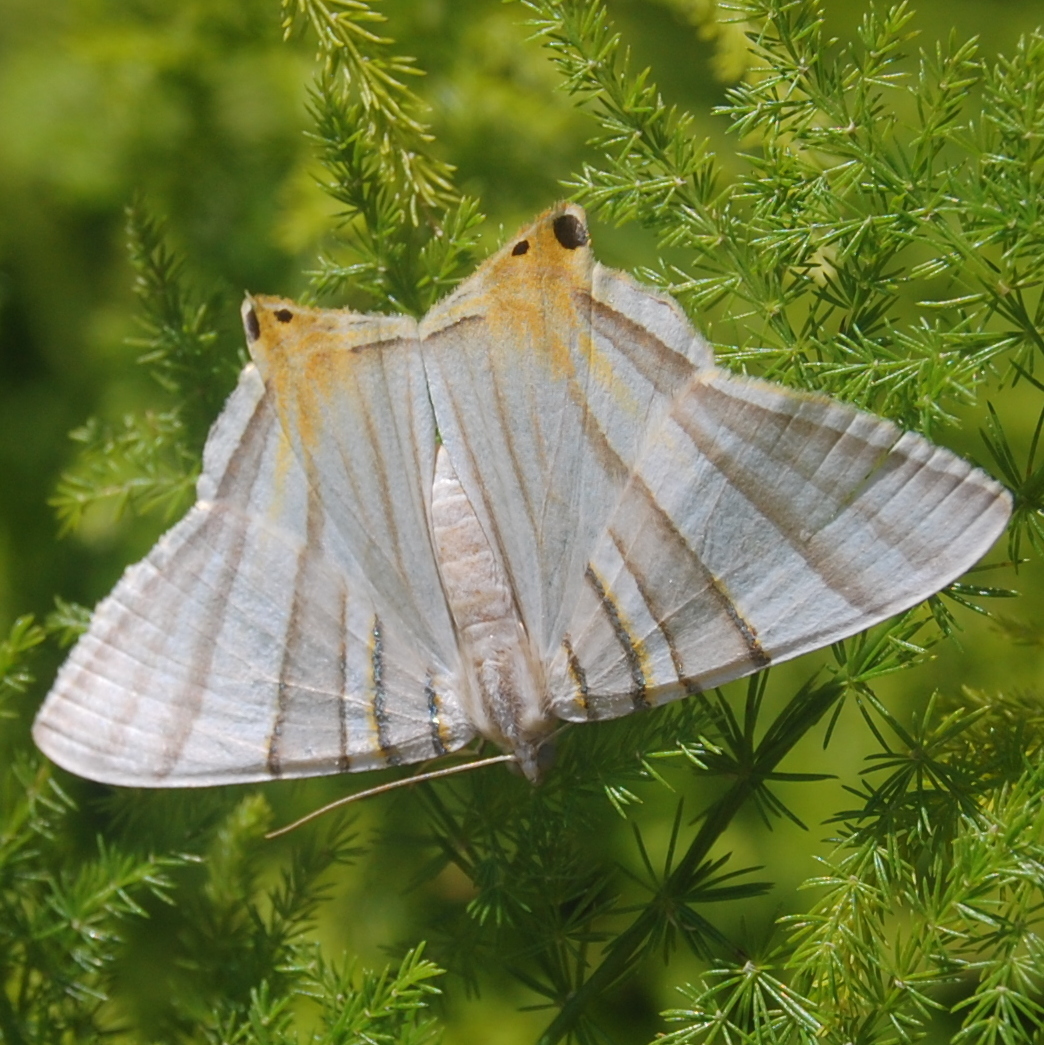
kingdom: Animalia
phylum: Arthropoda
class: Insecta
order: Lepidoptera
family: Geometridae
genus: Phrygionis
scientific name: Phrygionis platinata
